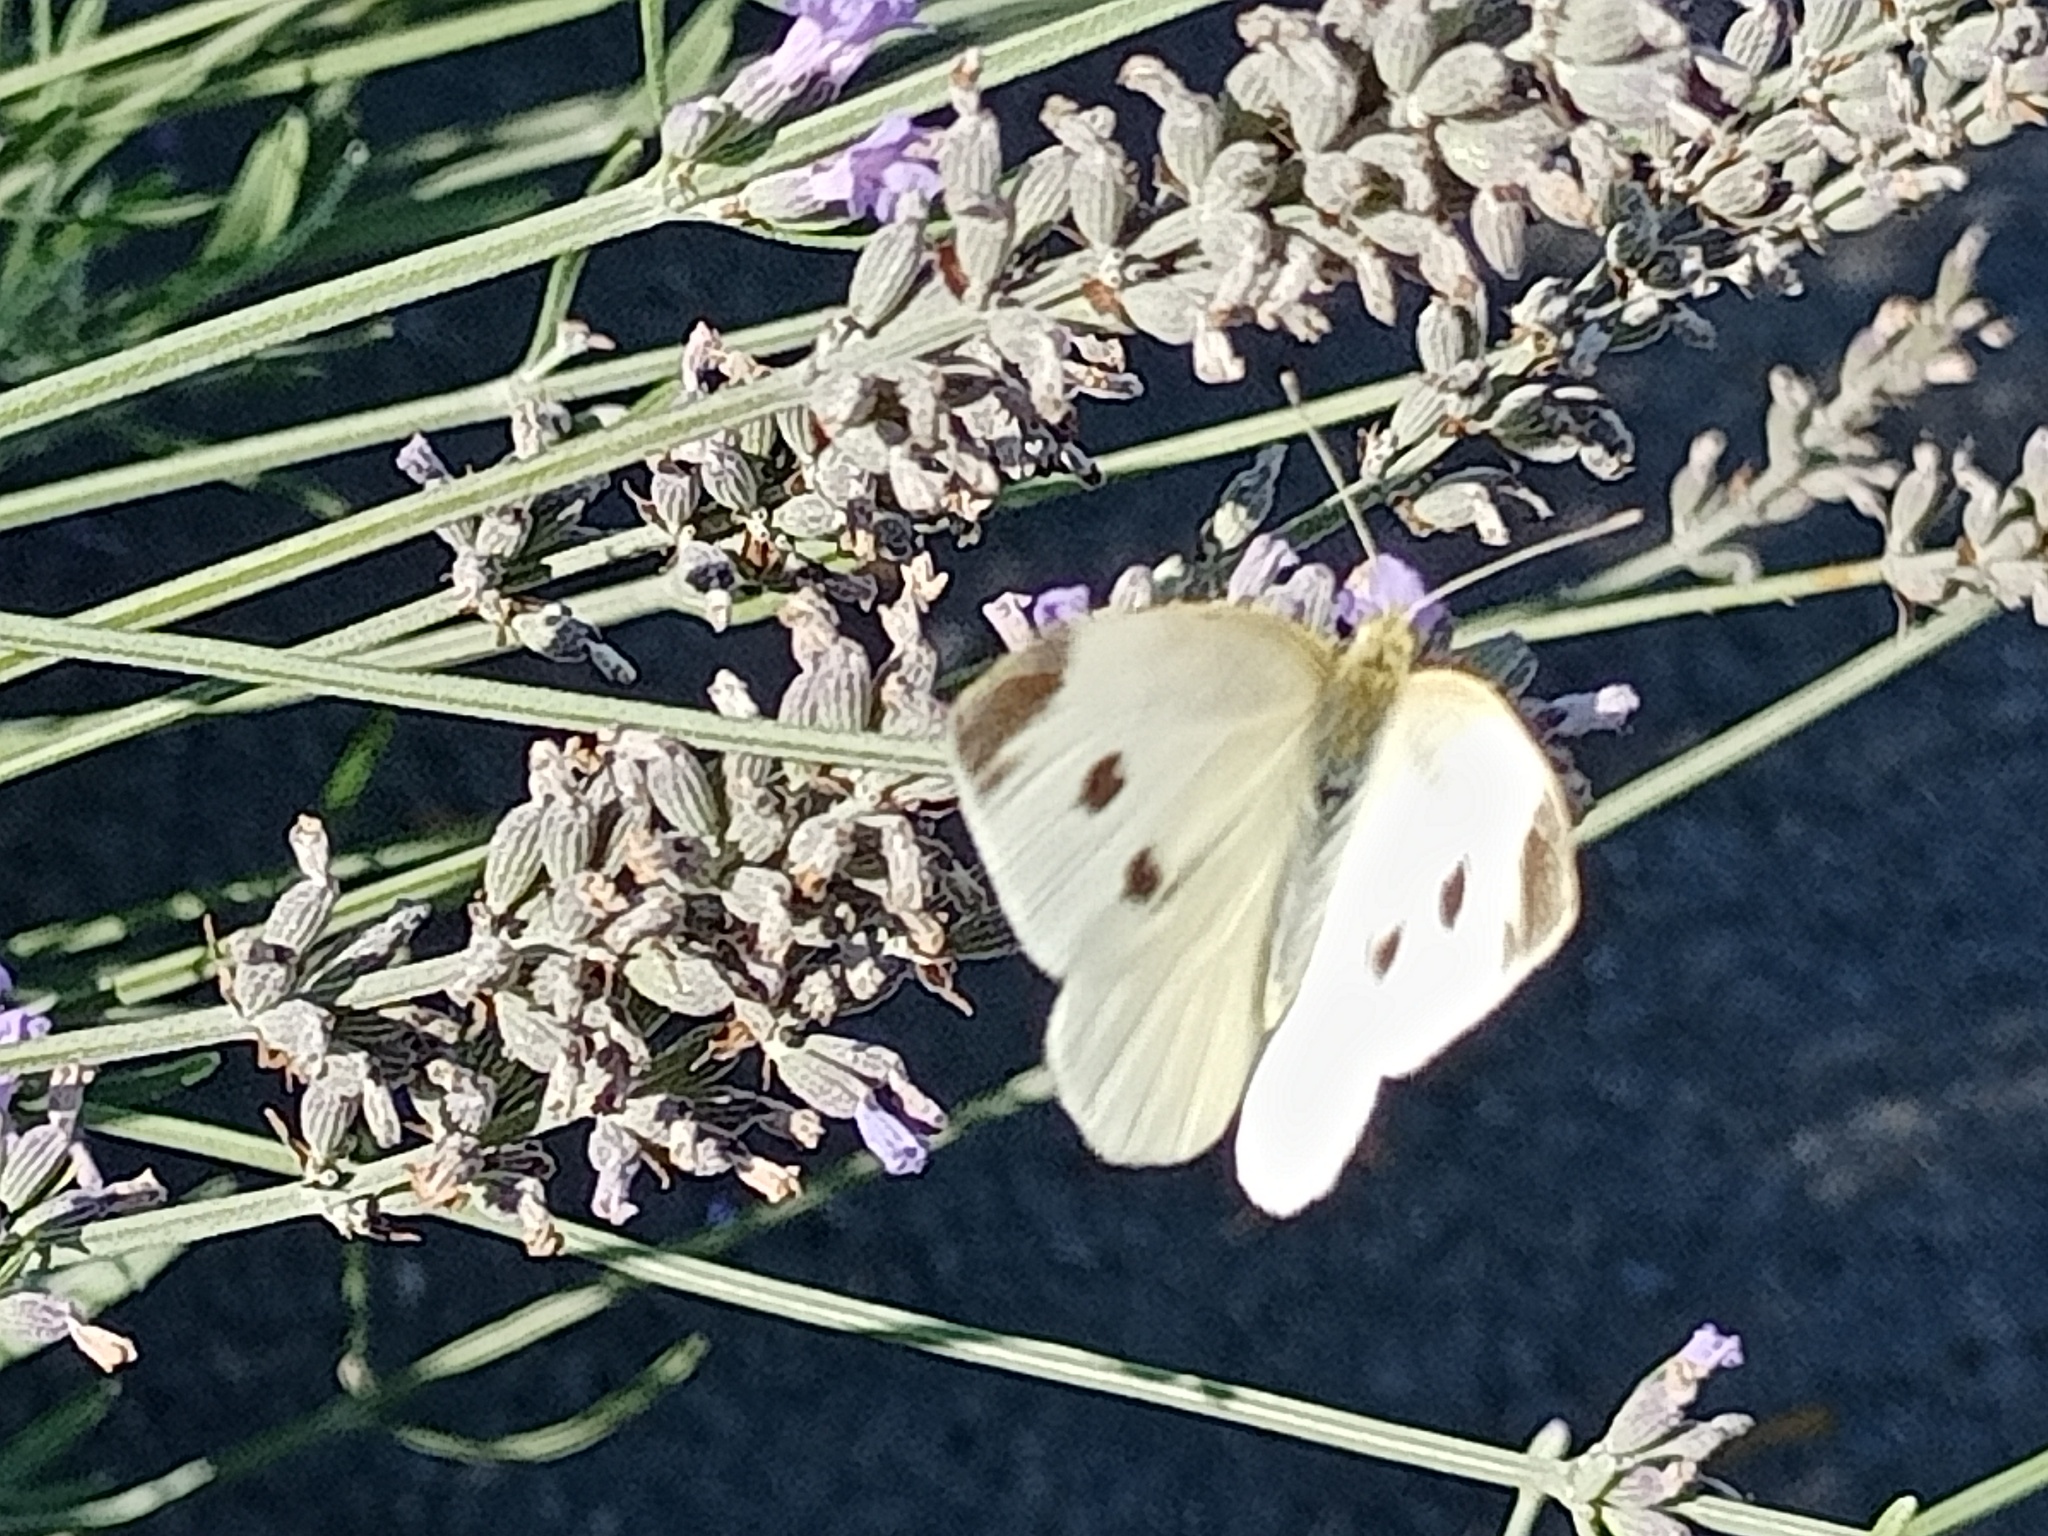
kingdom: Animalia
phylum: Arthropoda
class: Insecta
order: Lepidoptera
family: Pieridae
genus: Pieris
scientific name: Pieris rapae
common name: Small white
